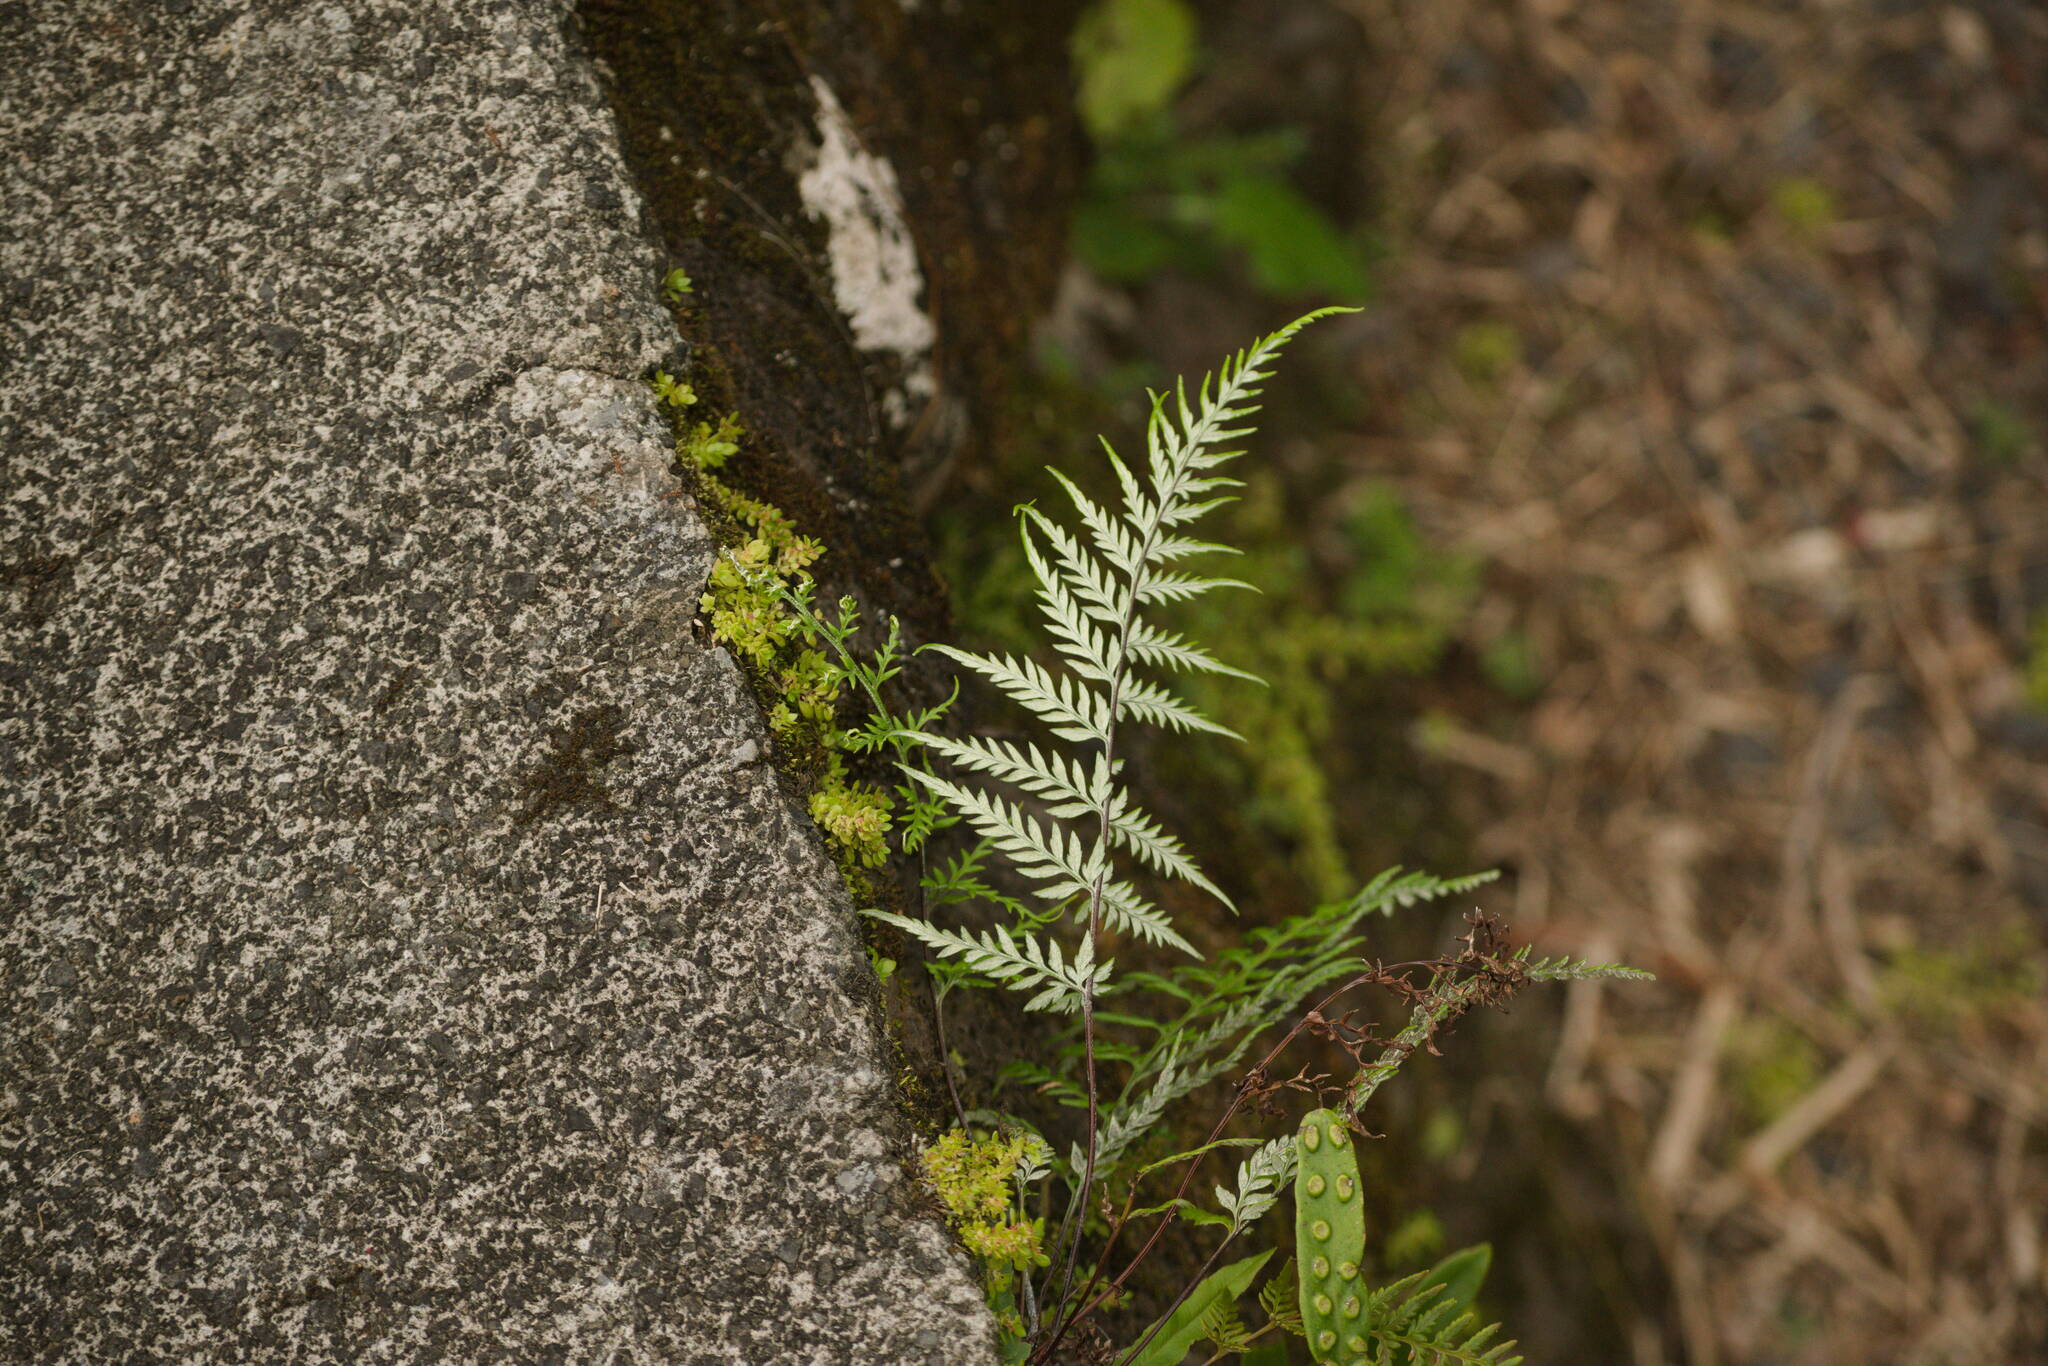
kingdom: Plantae
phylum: Tracheophyta
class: Polypodiopsida
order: Polypodiales
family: Pteridaceae
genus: Pityrogramma
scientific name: Pityrogramma calomelanos
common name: Dixie silverback fern
